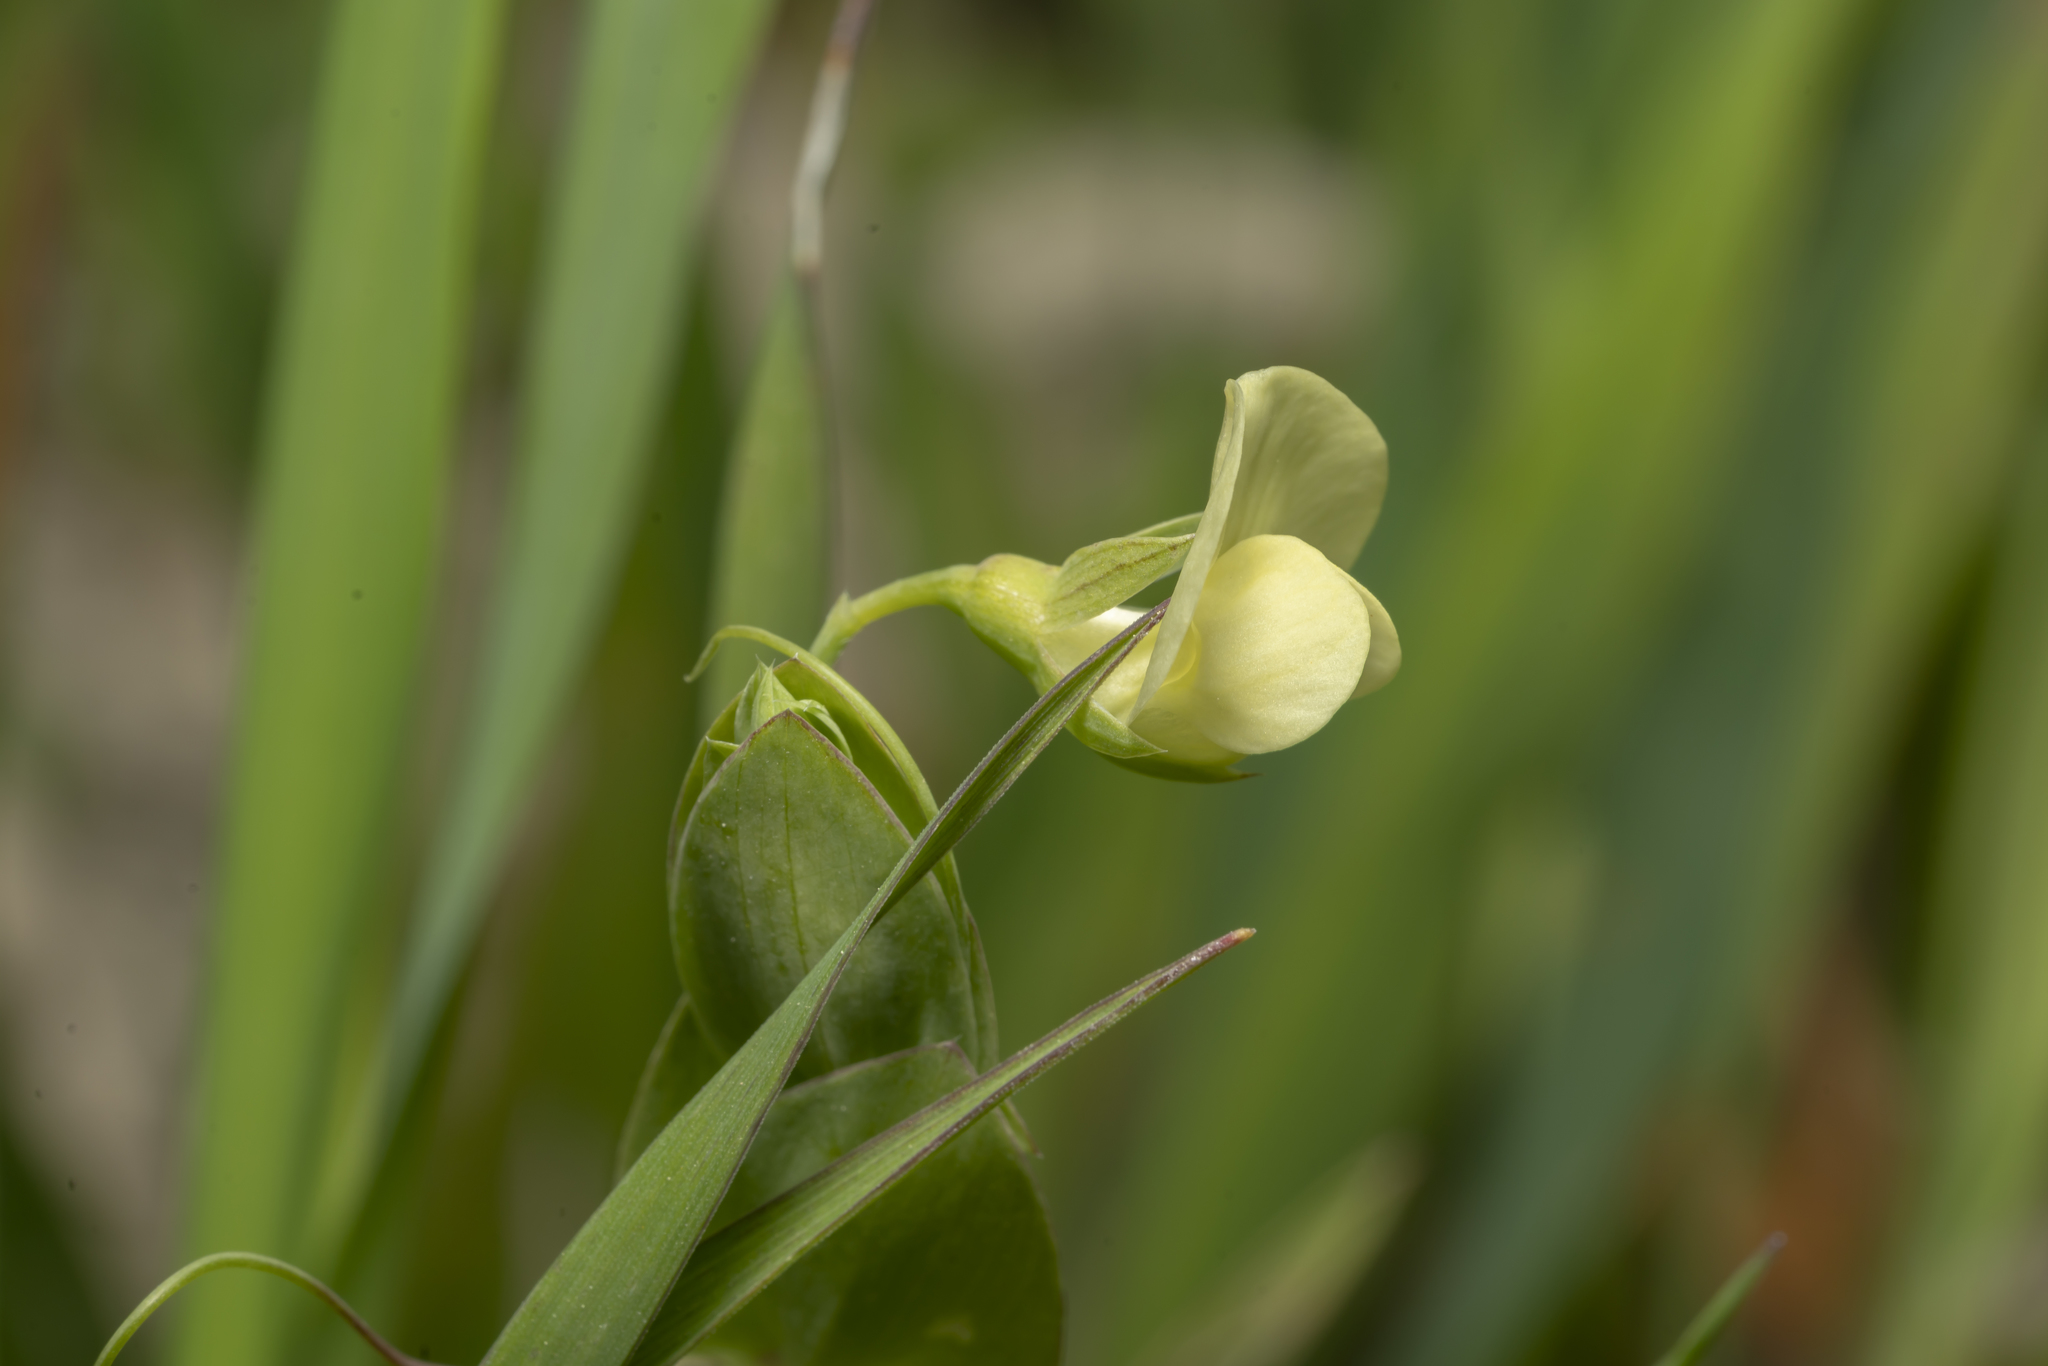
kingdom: Plantae
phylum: Tracheophyta
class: Magnoliopsida
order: Fabales
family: Fabaceae
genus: Lathyrus
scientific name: Lathyrus aphaca
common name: Yellow vetchling
